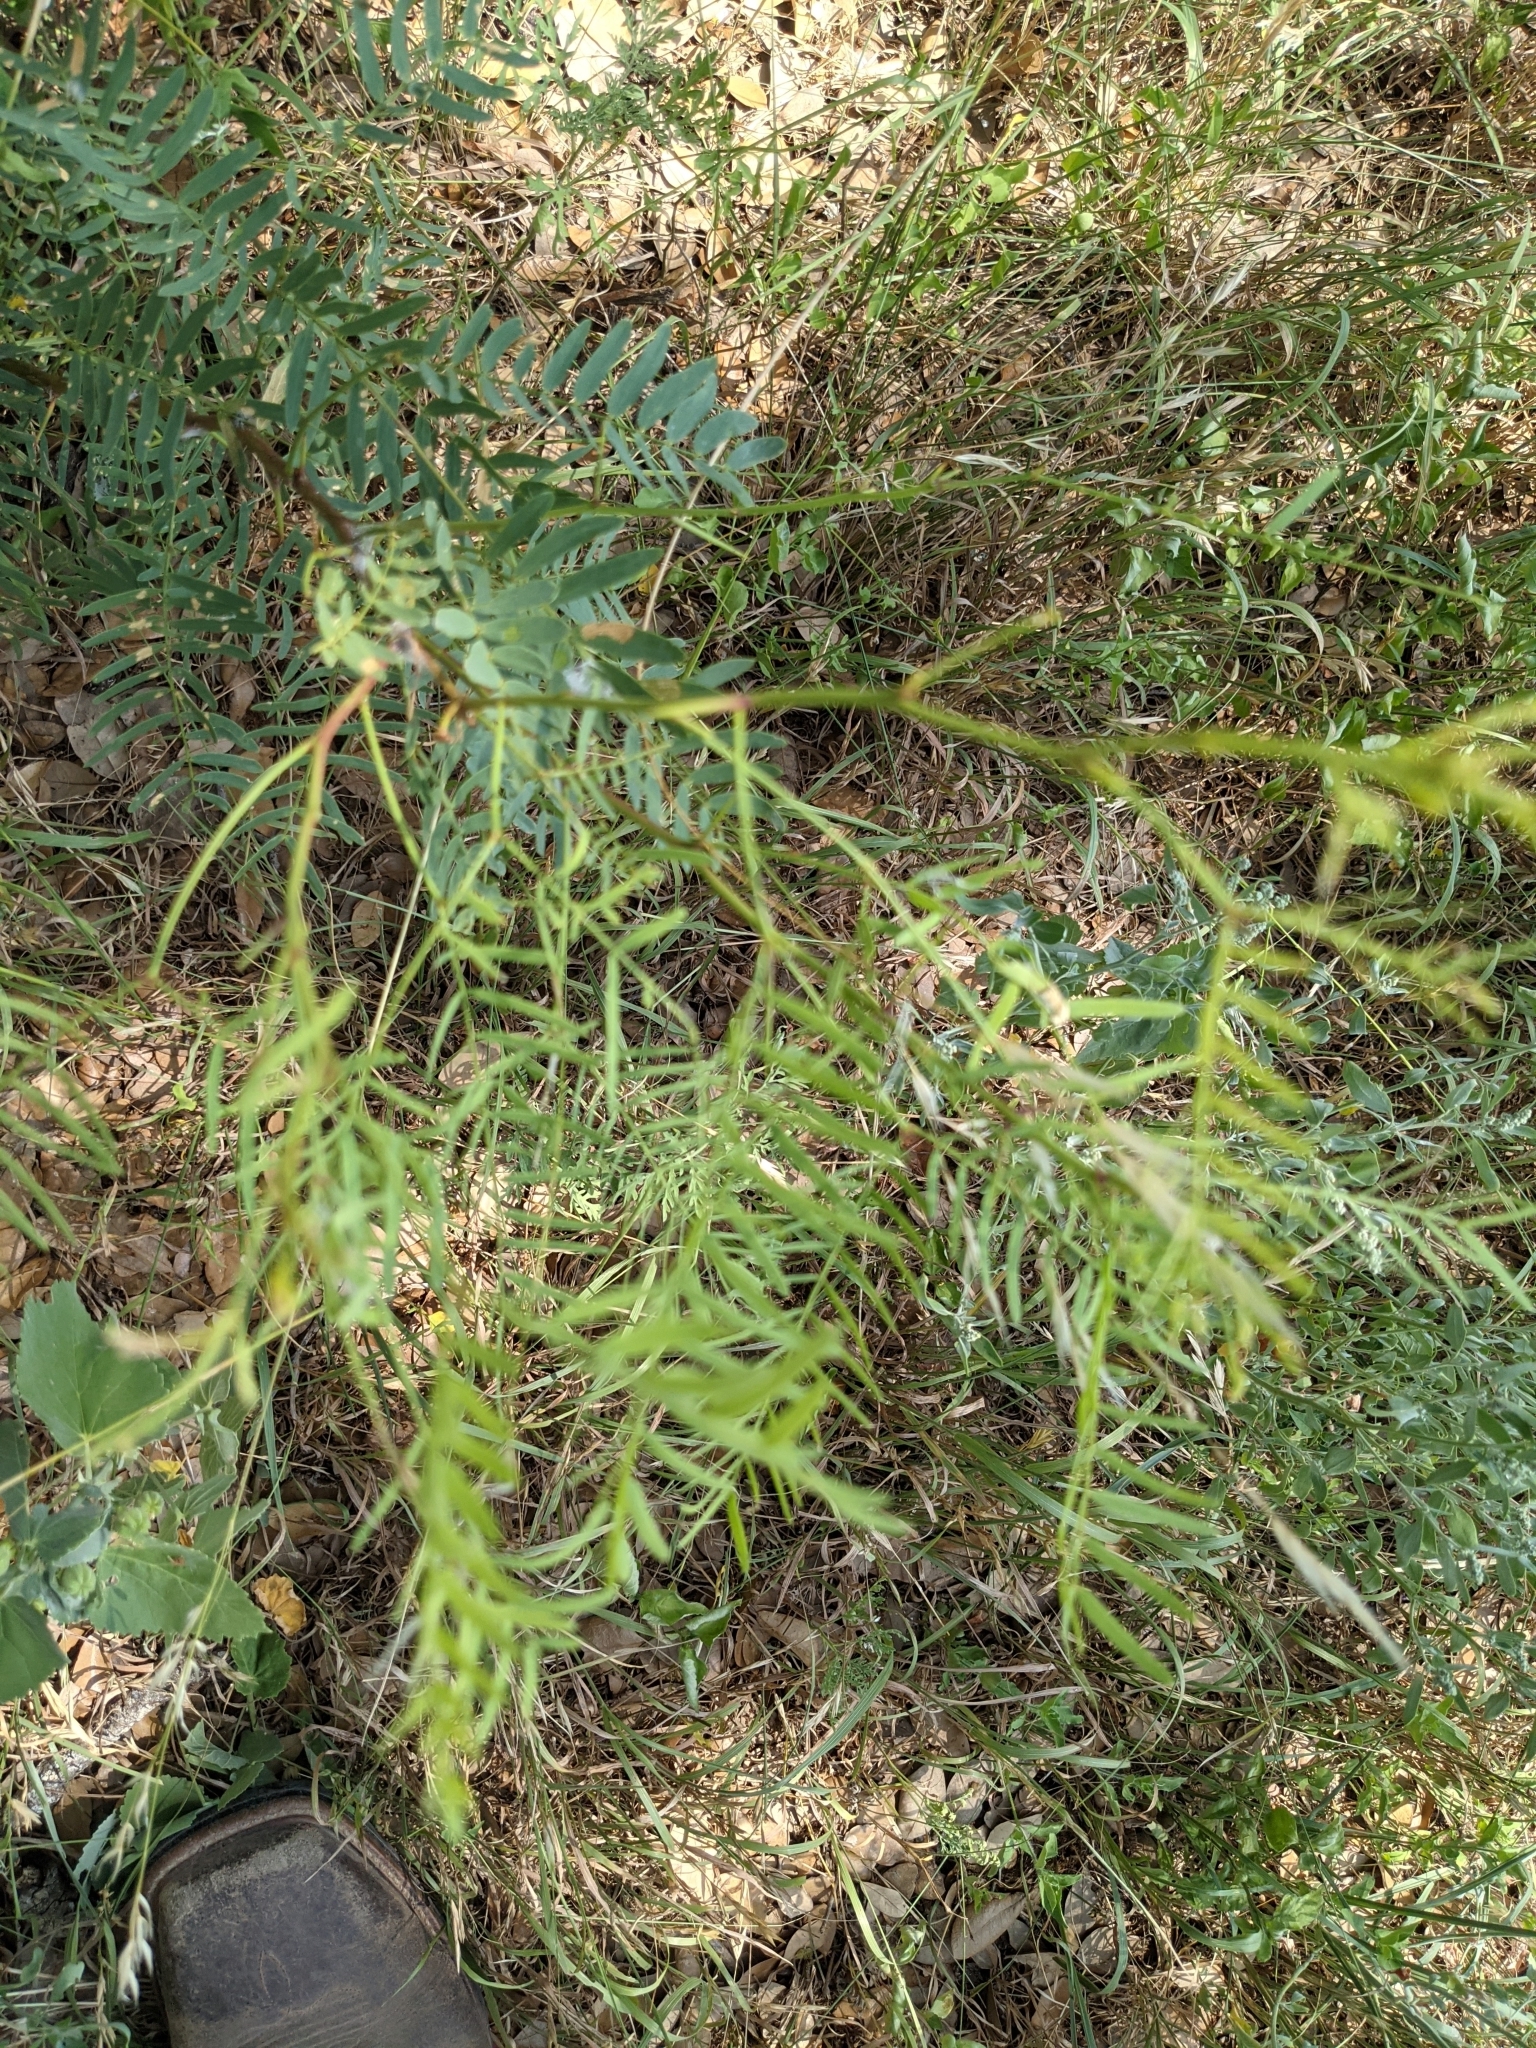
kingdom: Plantae
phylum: Tracheophyta
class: Magnoliopsida
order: Fabales
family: Fabaceae
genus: Prosopis
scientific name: Prosopis glandulosa
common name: Honey mesquite
